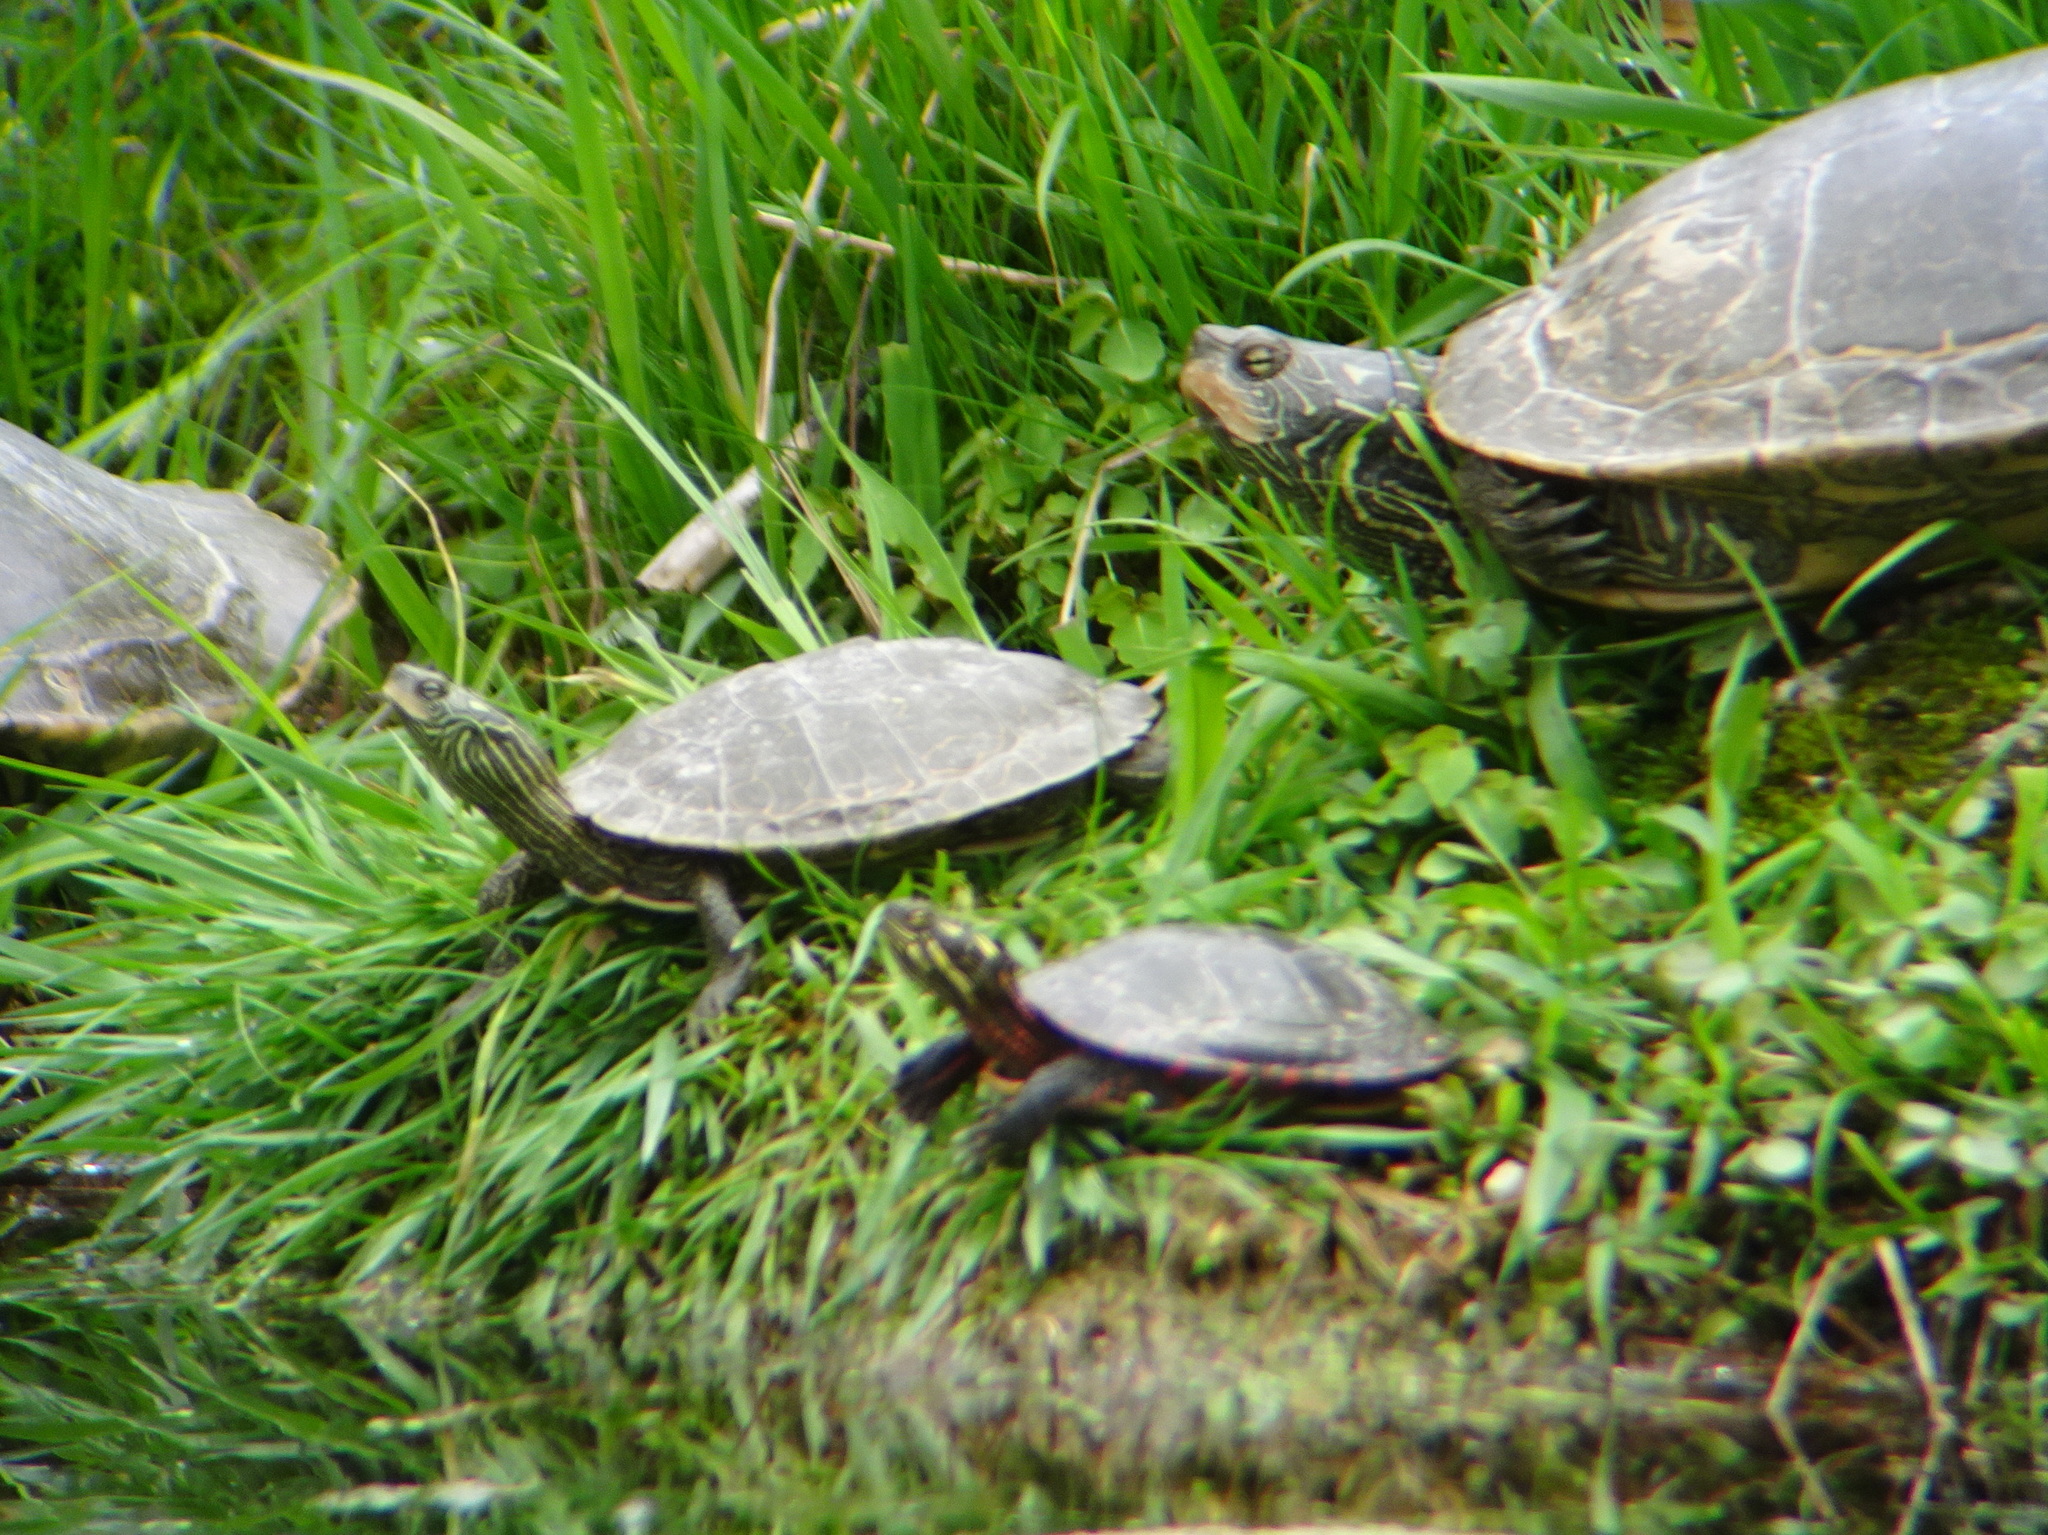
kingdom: Animalia
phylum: Chordata
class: Testudines
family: Emydidae
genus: Chrysemys
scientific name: Chrysemys picta
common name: Painted turtle
